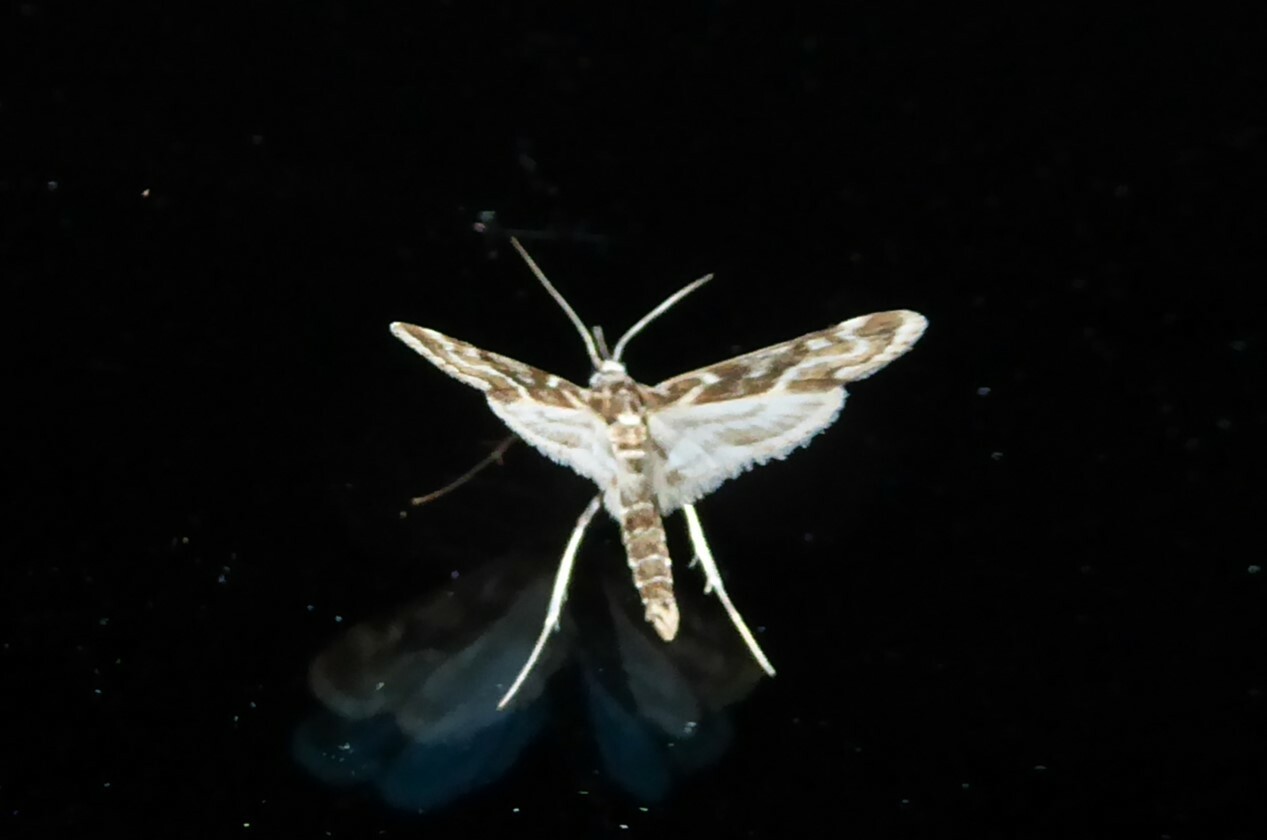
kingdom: Animalia
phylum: Arthropoda
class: Insecta
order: Lepidoptera
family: Crambidae
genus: Hygraula
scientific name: Hygraula nitens
